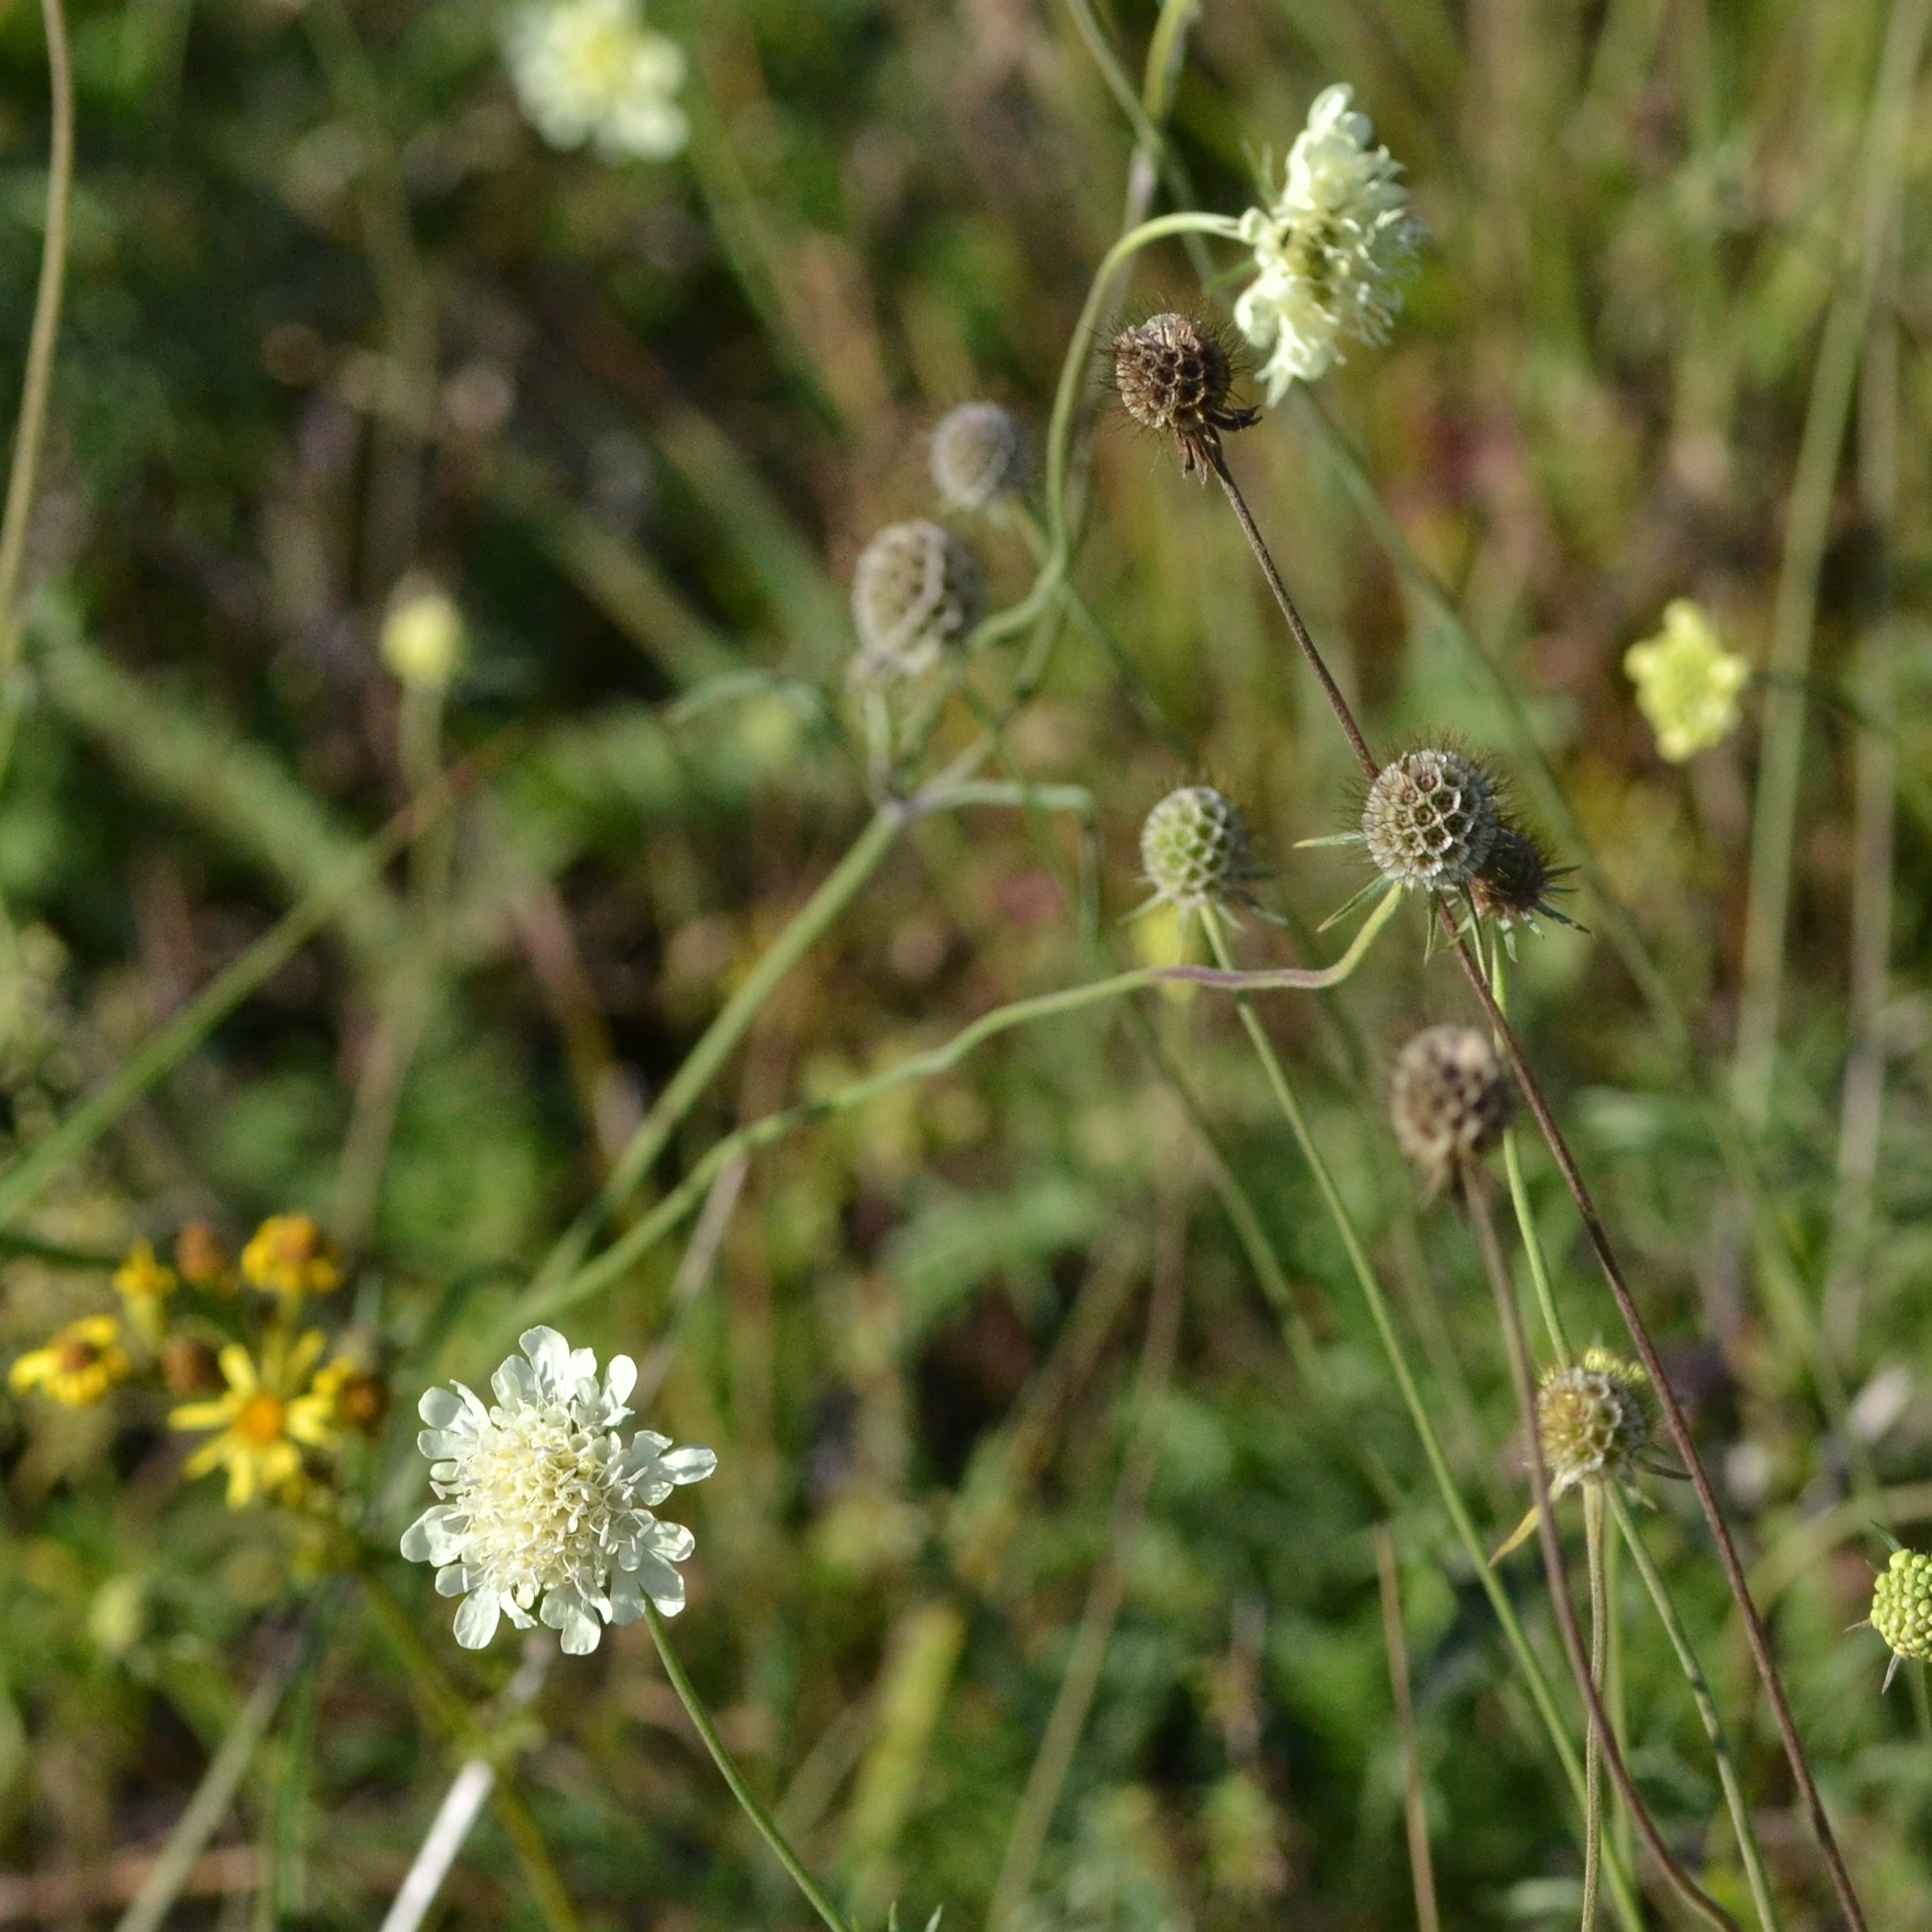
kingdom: Plantae
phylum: Tracheophyta
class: Magnoliopsida
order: Dipsacales
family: Caprifoliaceae
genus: Scabiosa
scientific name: Scabiosa ochroleuca
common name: Cream pincushions
